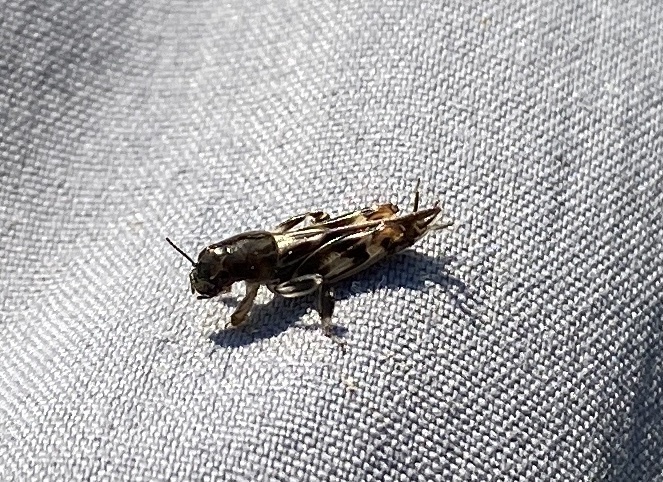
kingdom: Animalia
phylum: Arthropoda
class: Insecta
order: Orthoptera
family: Tridactylidae
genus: Neotridactylus
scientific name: Neotridactylus apicialis
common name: Larger pygmy locust
